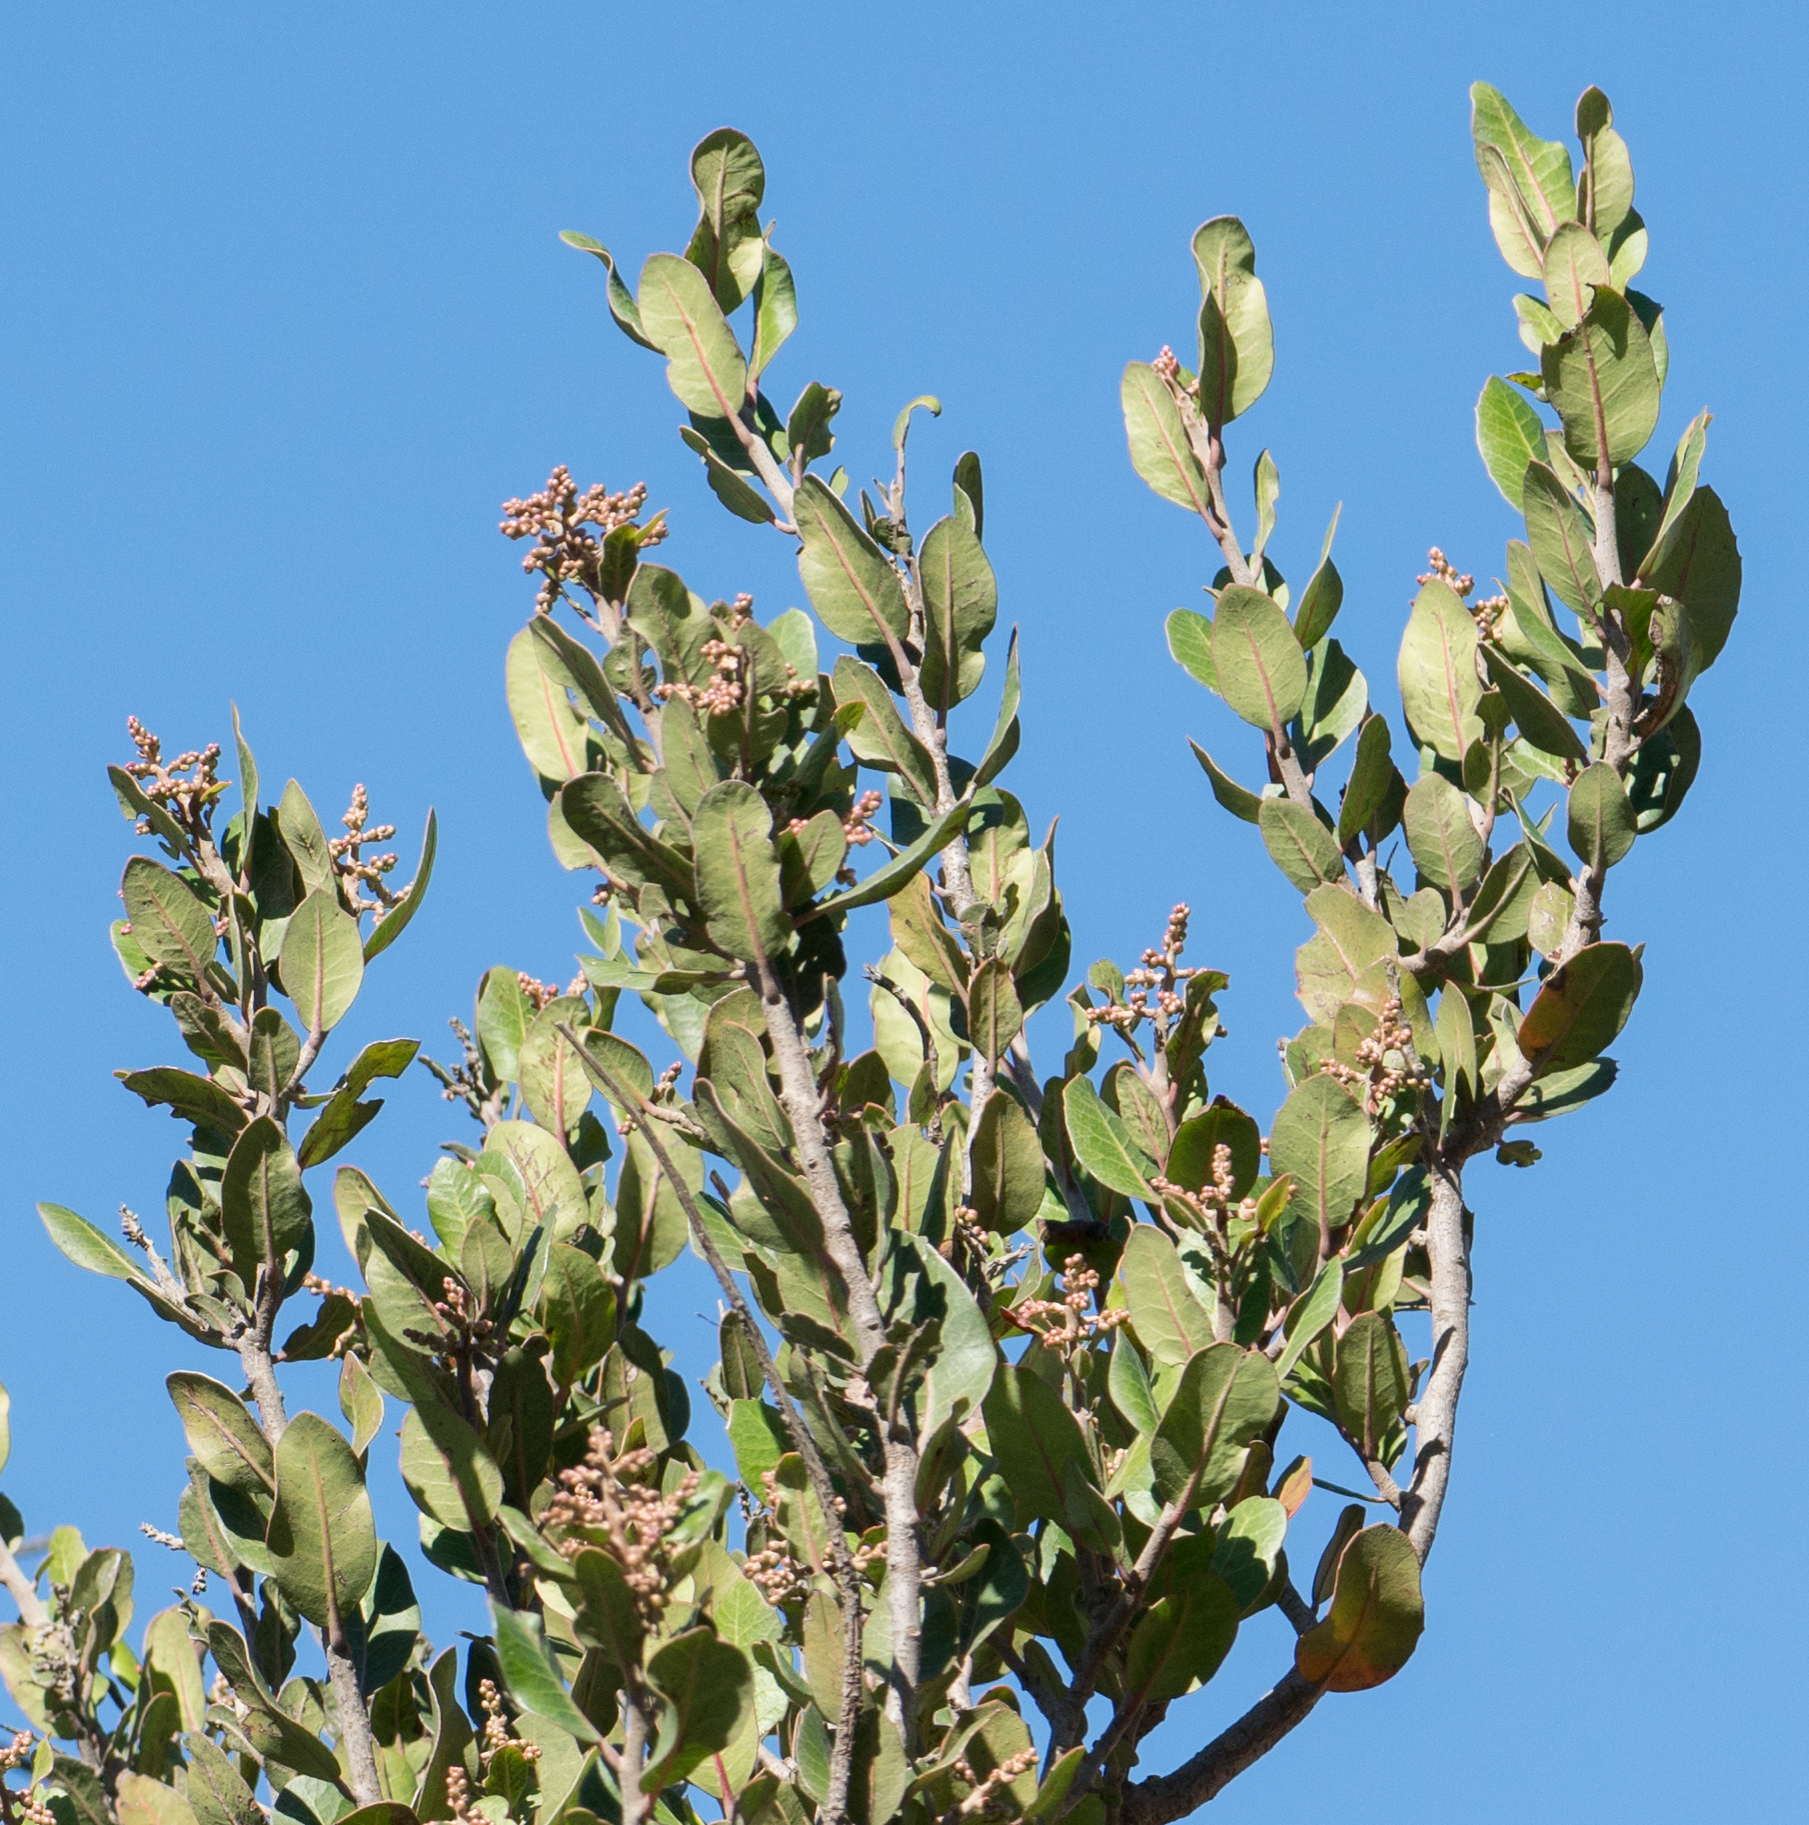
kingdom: Plantae
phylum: Tracheophyta
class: Magnoliopsida
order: Sapindales
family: Anacardiaceae
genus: Rhus
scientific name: Rhus integrifolia
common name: Lemonade sumac
